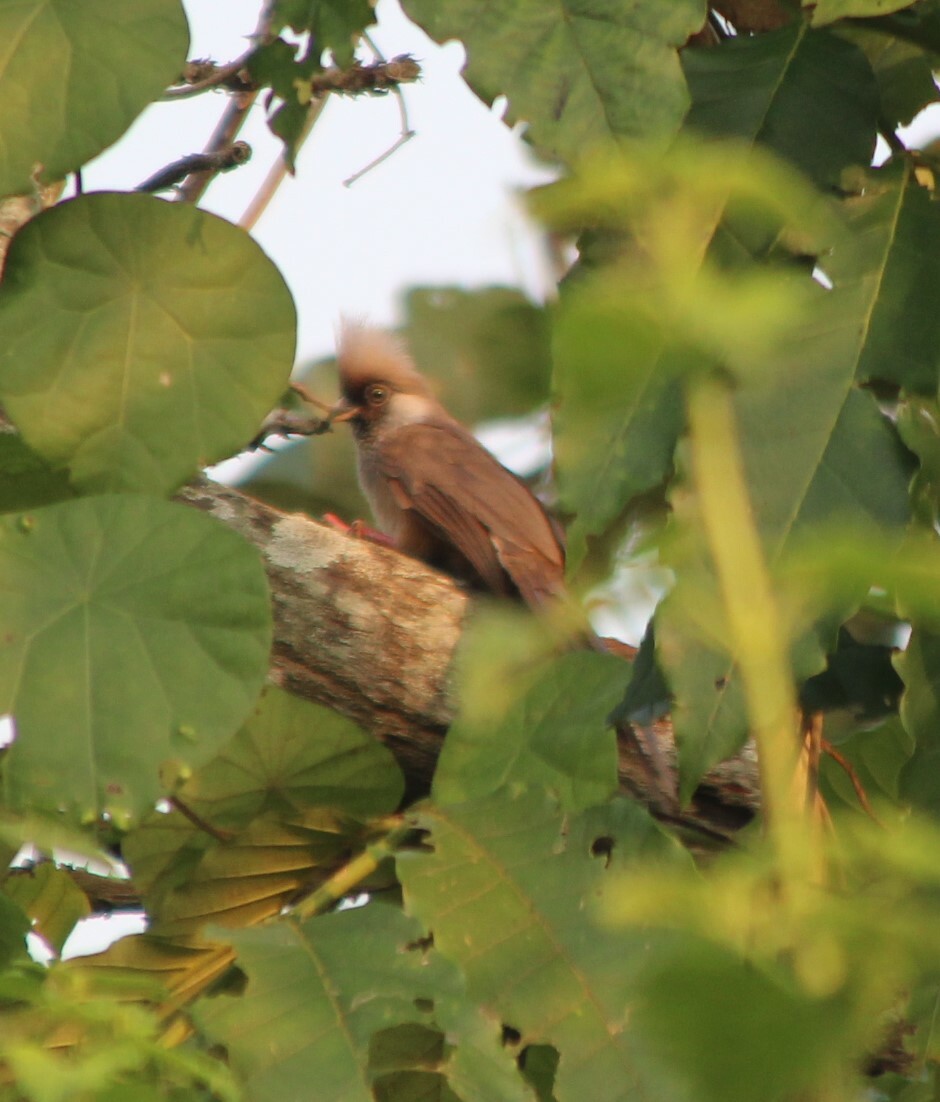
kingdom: Animalia
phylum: Chordata
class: Aves
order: Coliiformes
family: Coliidae
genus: Colius
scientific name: Colius striatus
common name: Speckled mousebird
